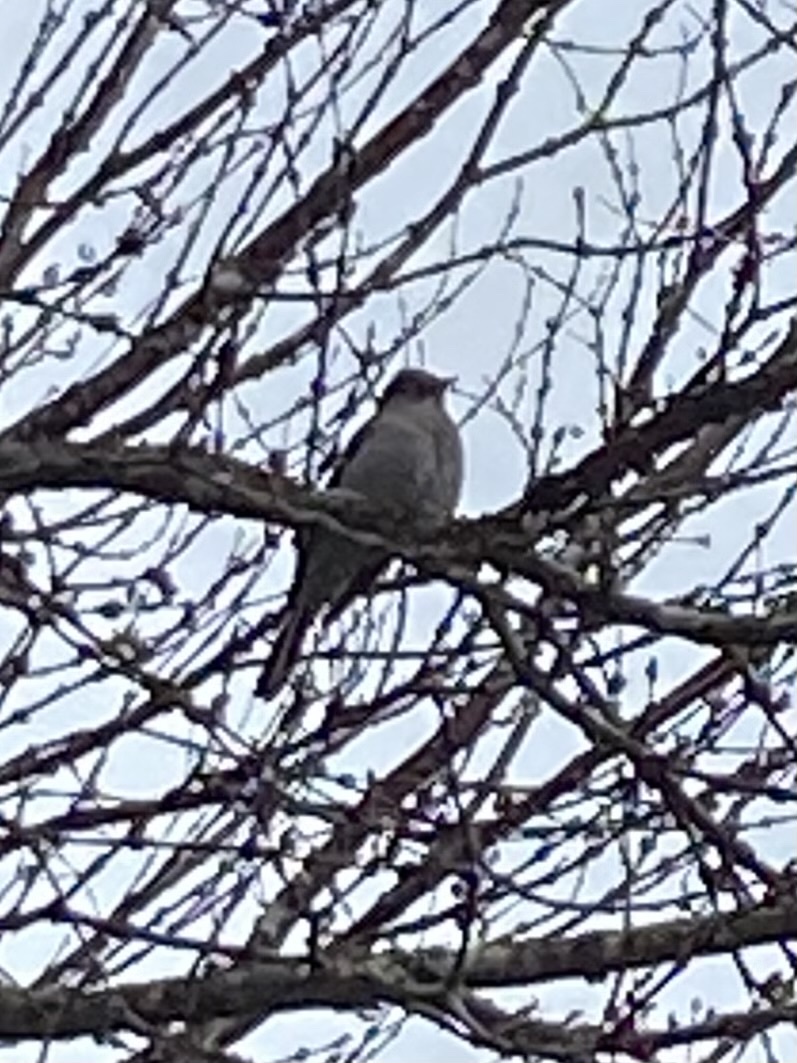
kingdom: Animalia
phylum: Chordata
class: Aves
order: Passeriformes
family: Turdidae
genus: Myadestes
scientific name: Myadestes townsendi
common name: Townsend's solitaire
